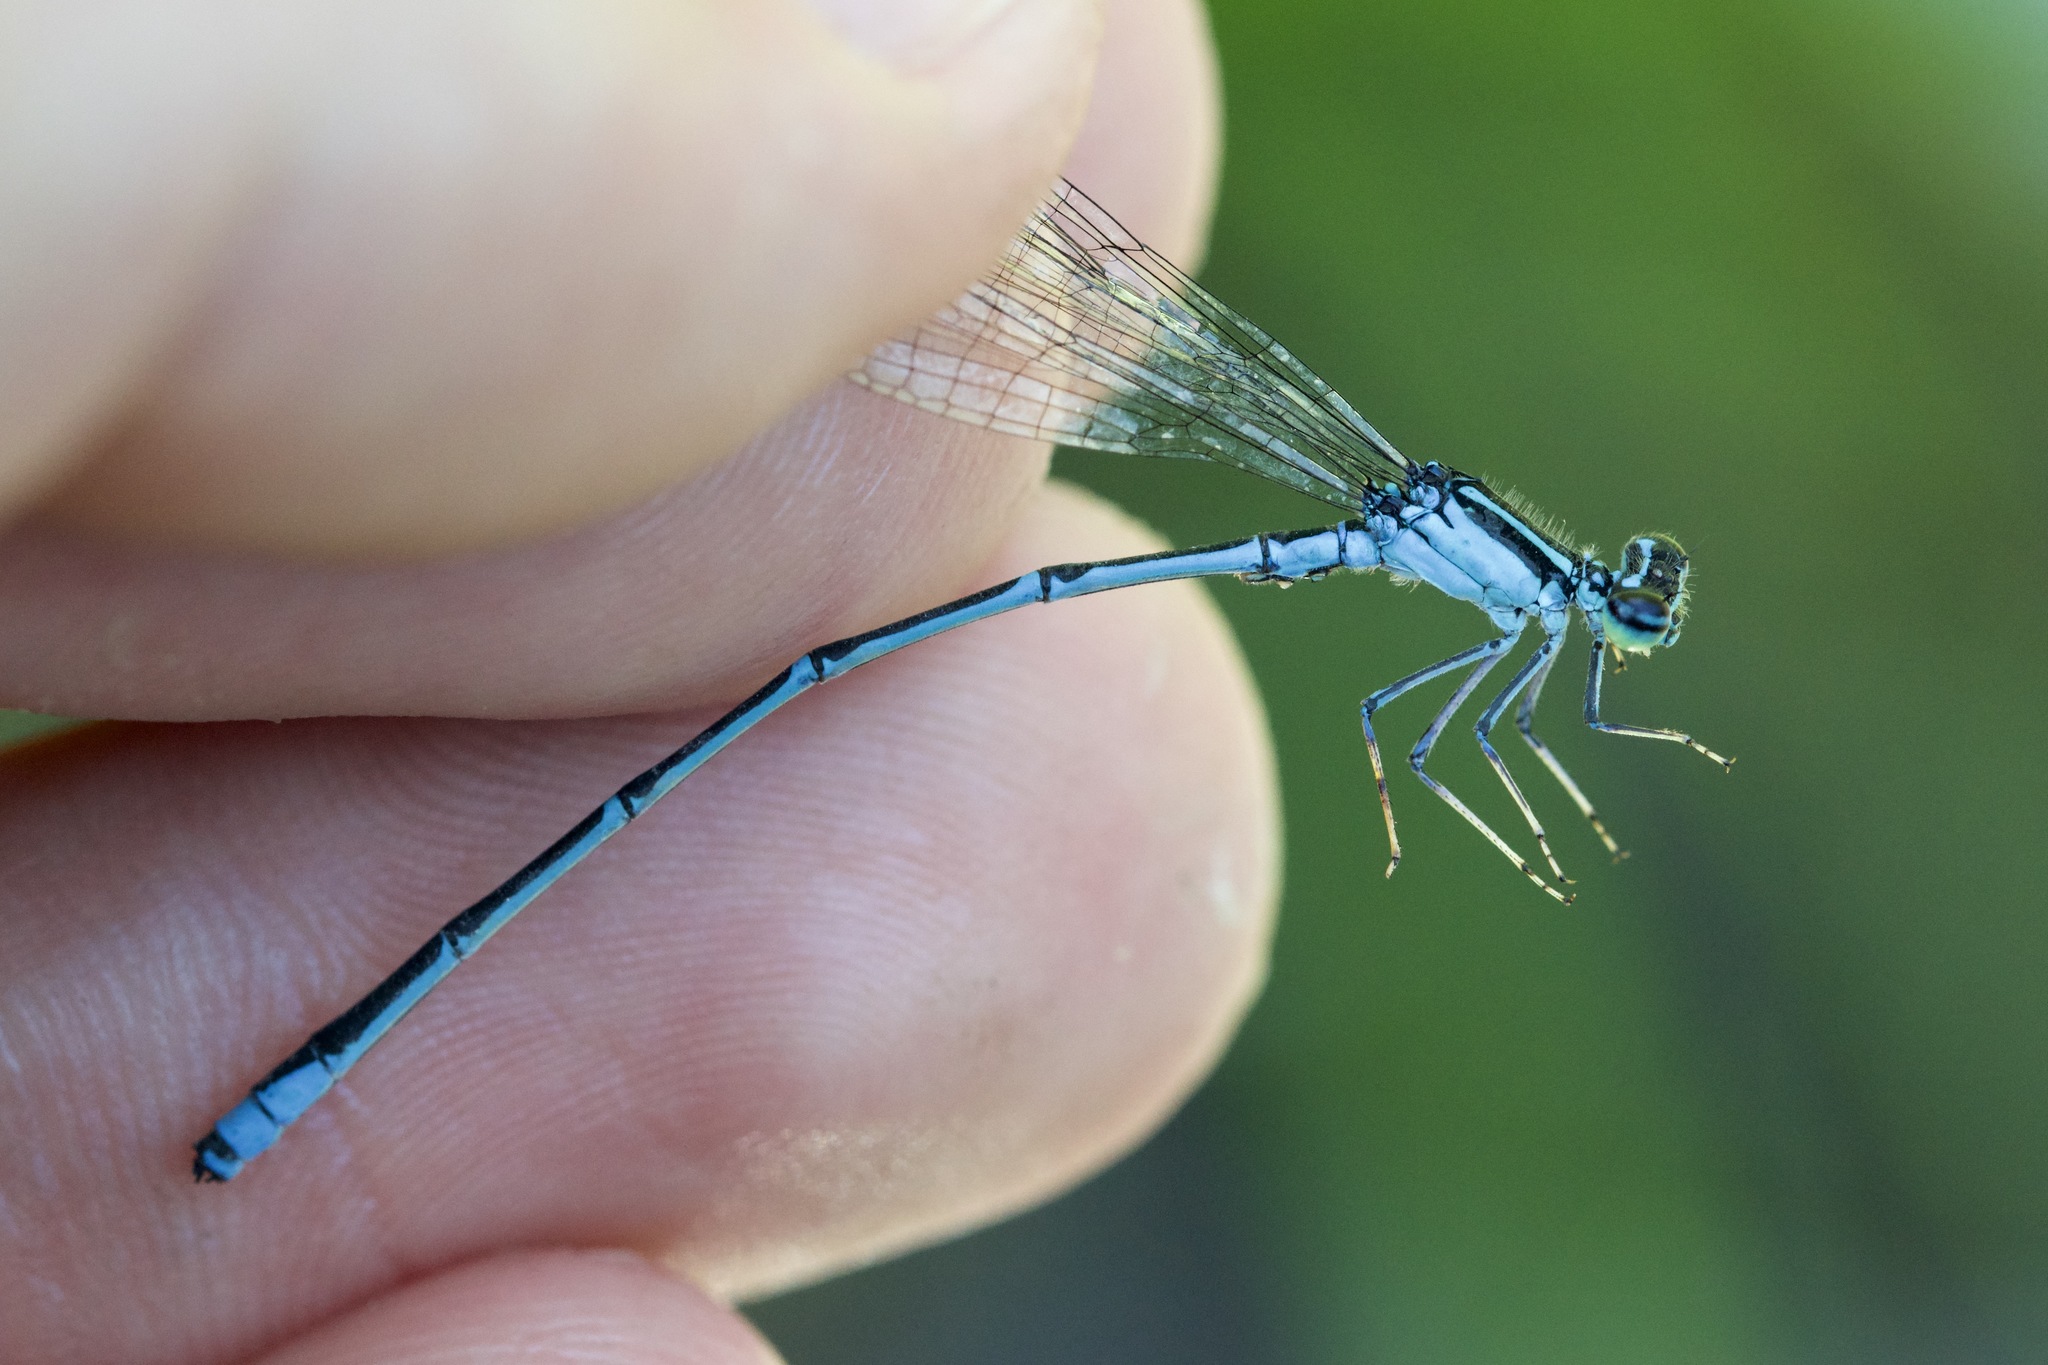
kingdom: Animalia
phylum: Arthropoda
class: Insecta
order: Odonata
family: Coenagrionidae
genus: Enallagma
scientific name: Enallagma exsulans
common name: Stream bluet
